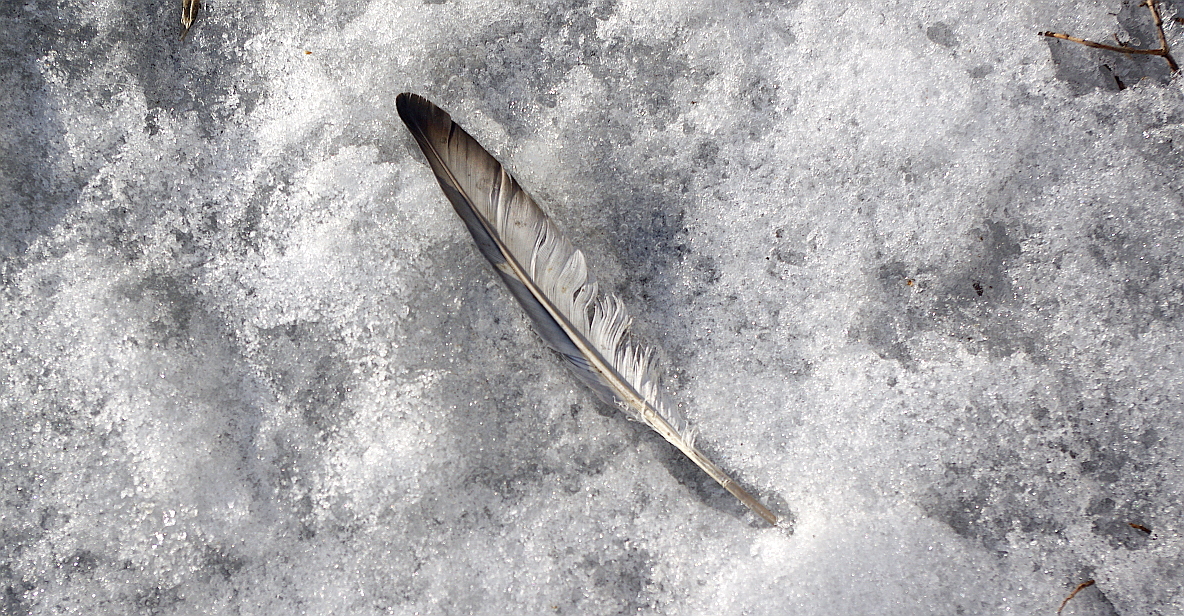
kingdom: Animalia
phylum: Chordata
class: Aves
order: Columbiformes
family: Columbidae
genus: Columba
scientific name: Columba livia
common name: Rock pigeon
